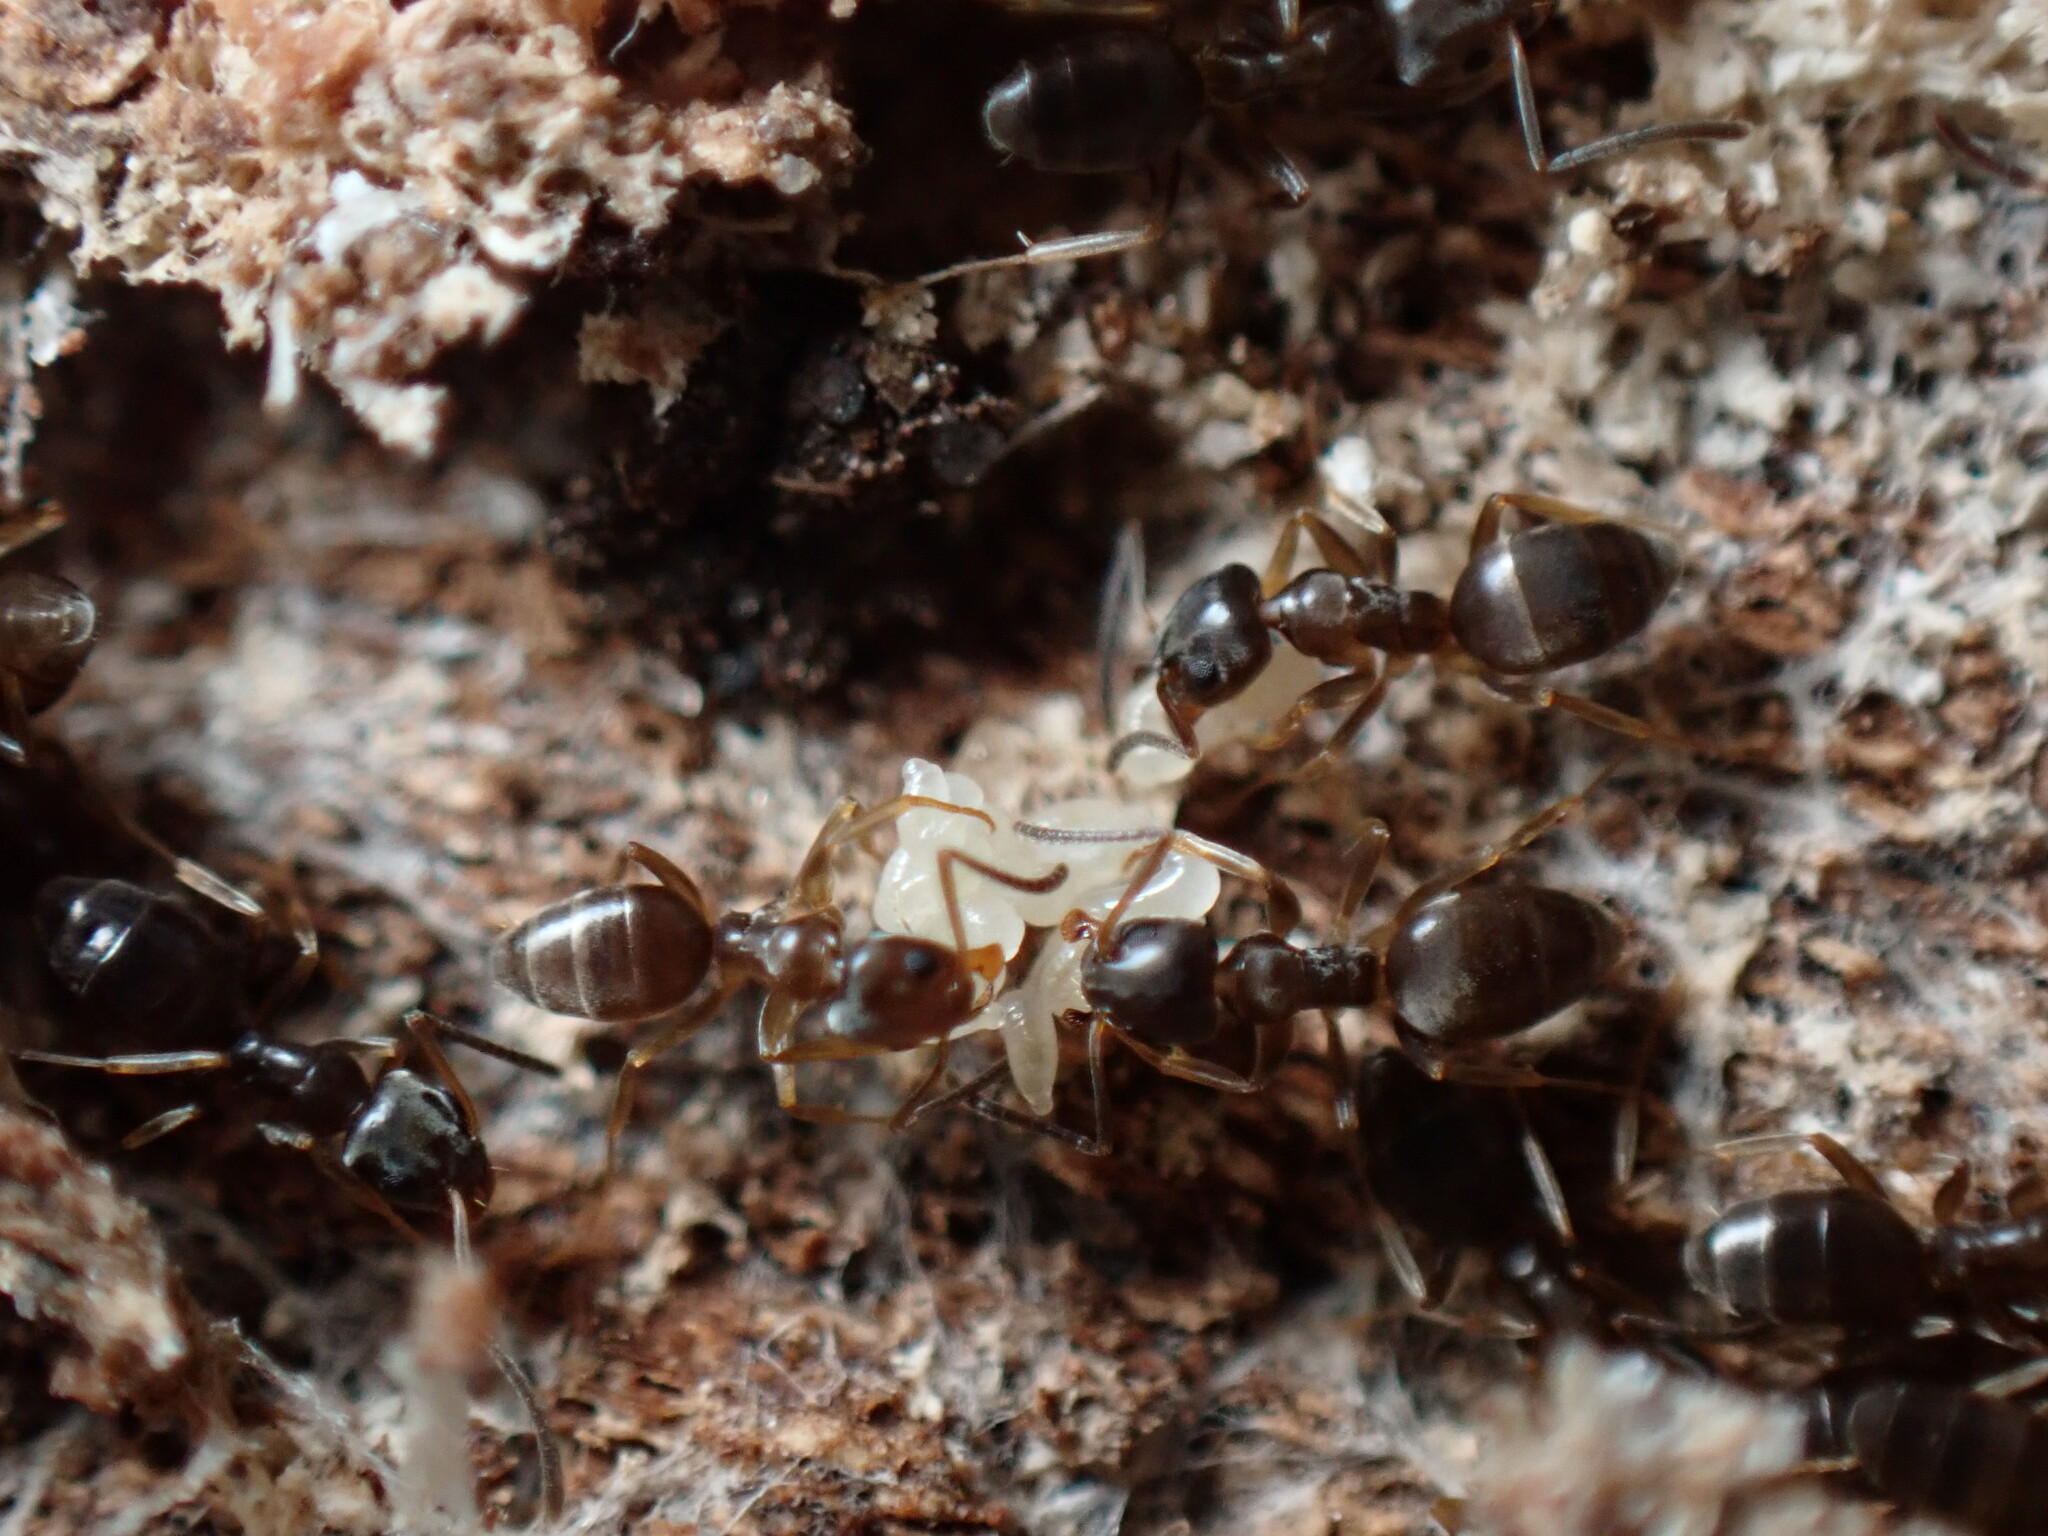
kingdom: Animalia
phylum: Arthropoda
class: Insecta
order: Hymenoptera
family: Formicidae
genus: Tapinoma
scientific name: Tapinoma sessile
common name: Odorous house ant
